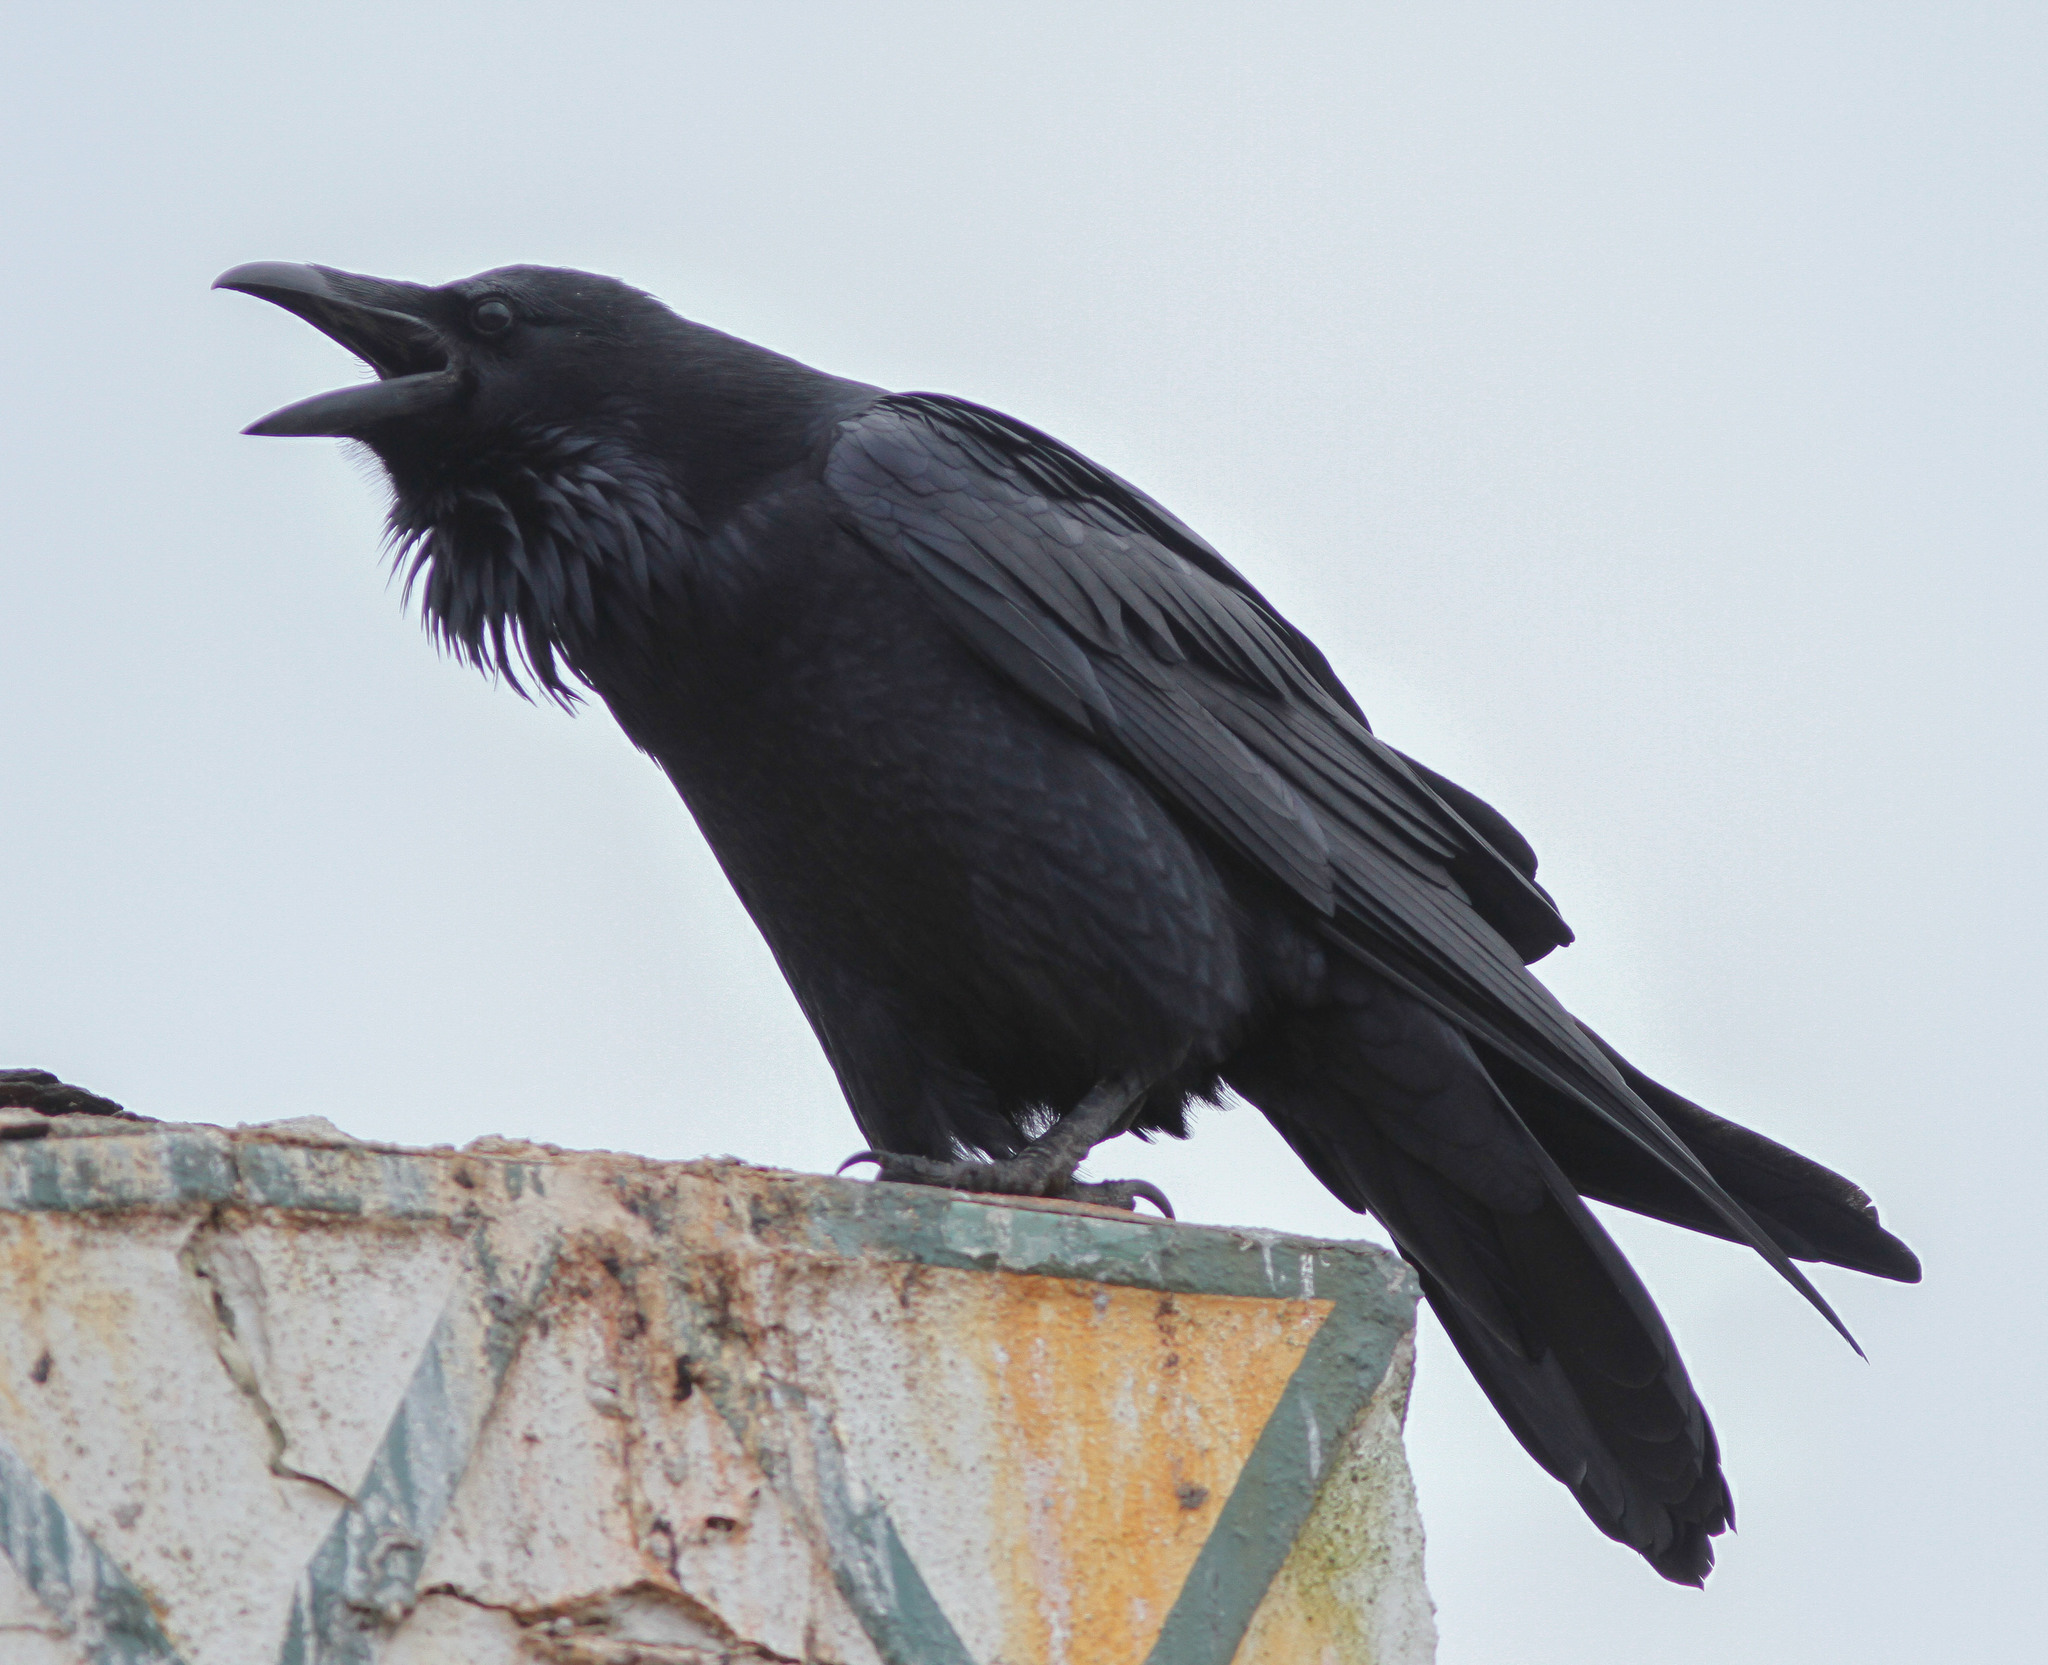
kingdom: Animalia
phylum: Chordata
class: Aves
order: Passeriformes
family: Corvidae
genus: Corvus
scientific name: Corvus corax
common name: Common raven
